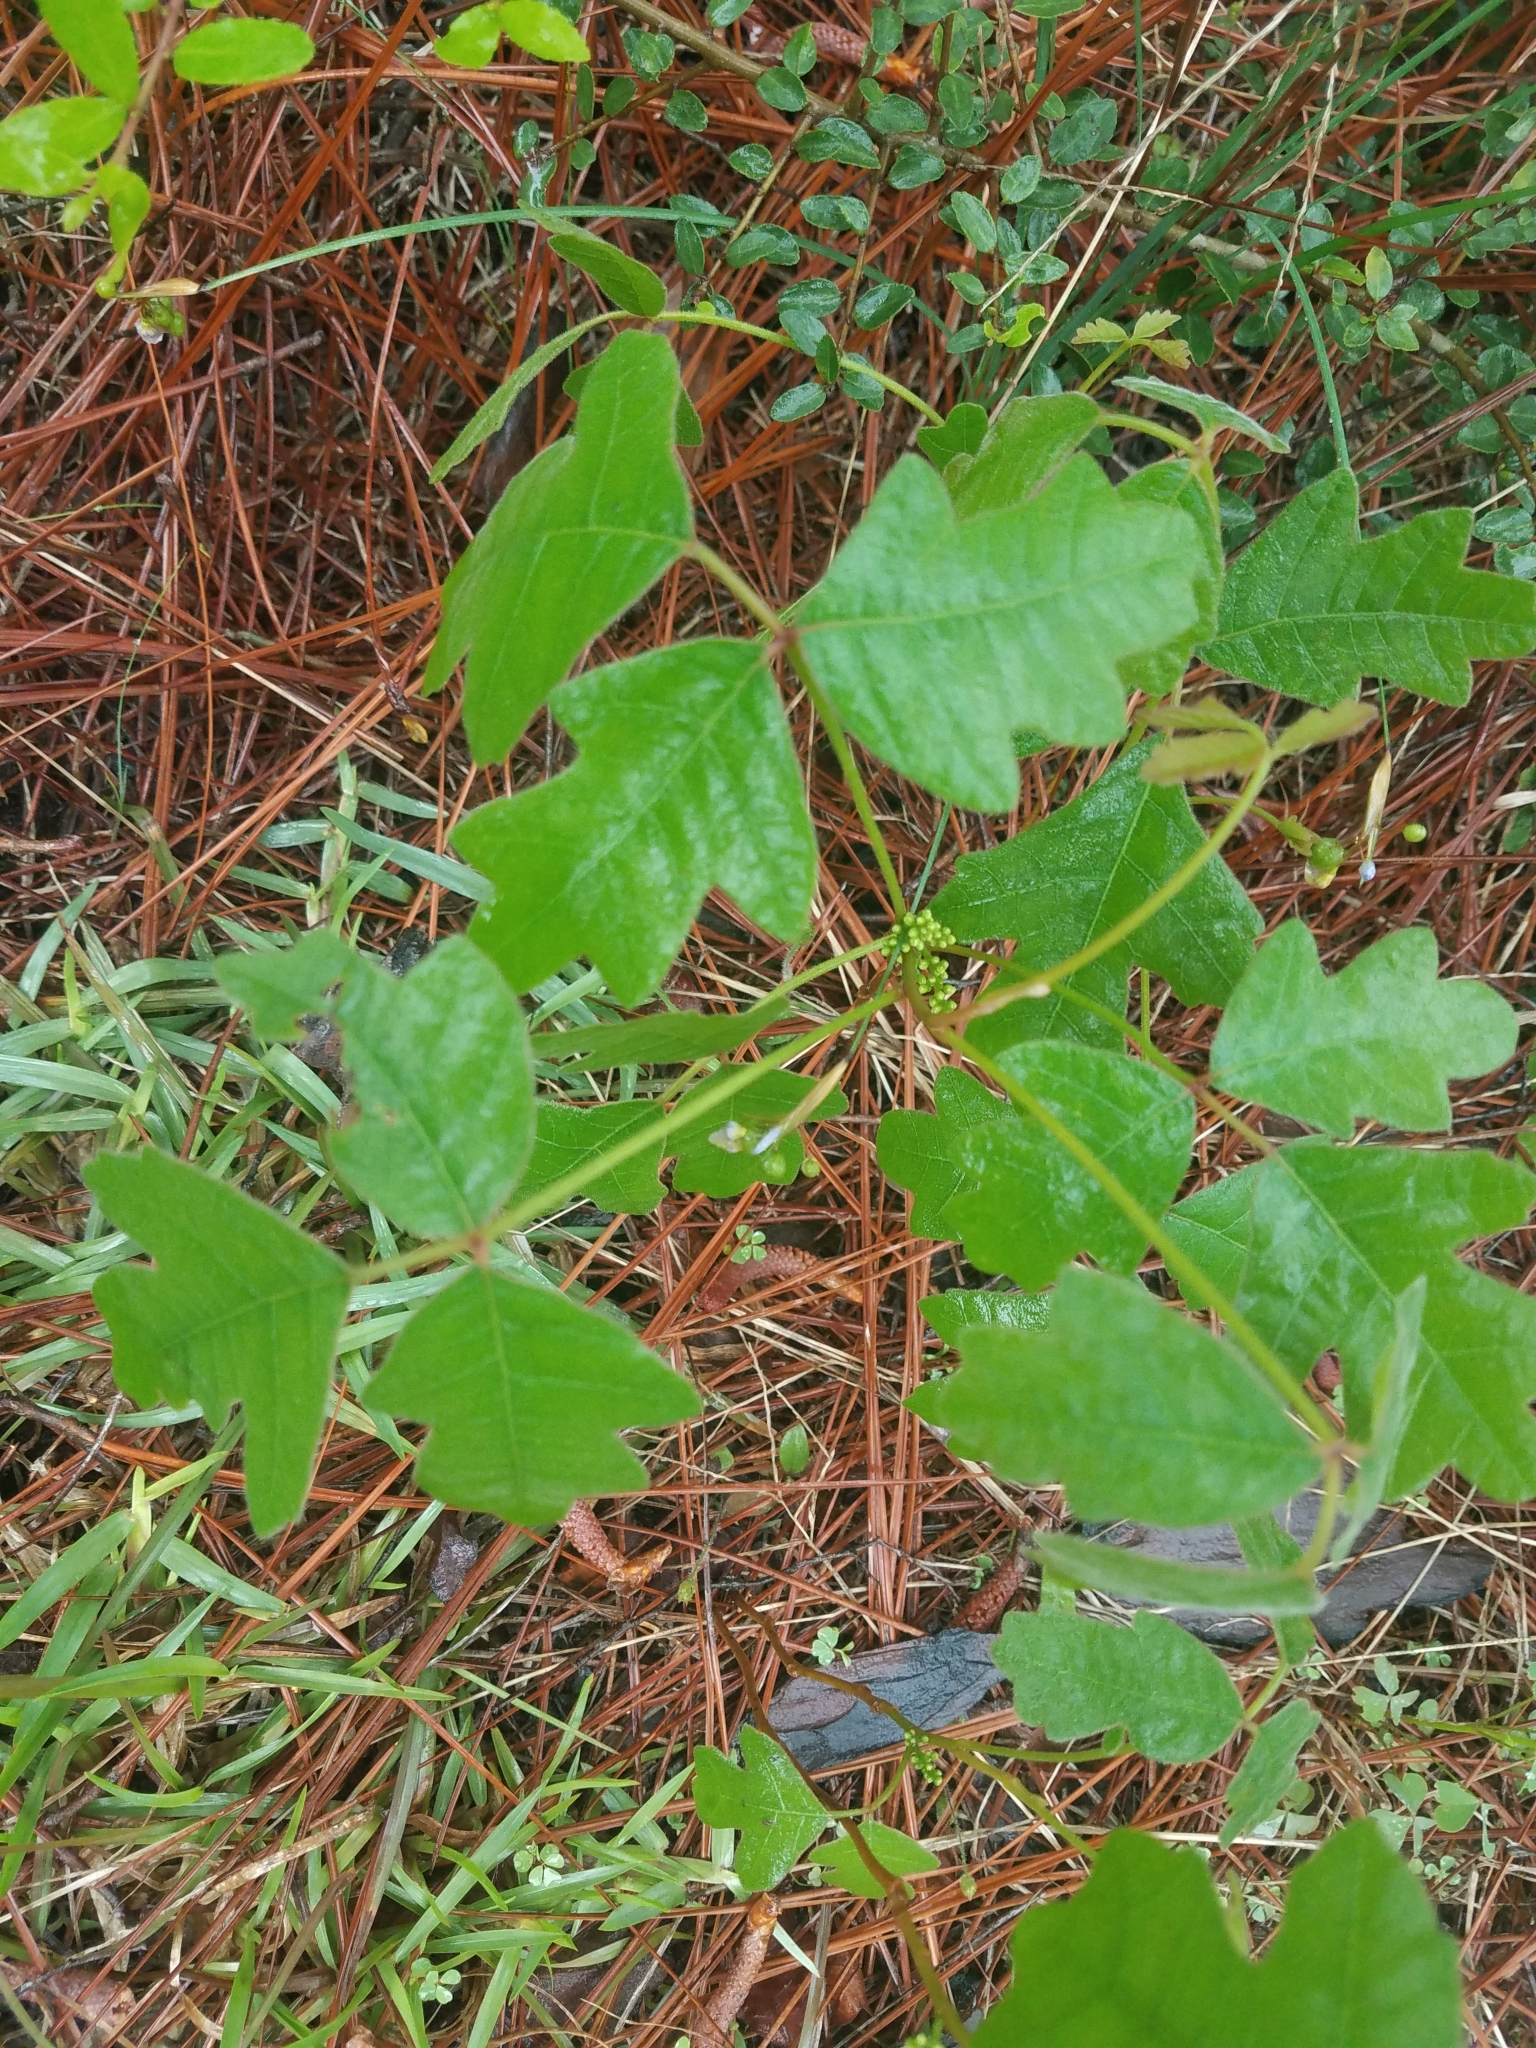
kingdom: Plantae
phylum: Tracheophyta
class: Magnoliopsida
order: Sapindales
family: Anacardiaceae
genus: Toxicodendron
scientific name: Toxicodendron pubescens
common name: Eastern poison-oak
